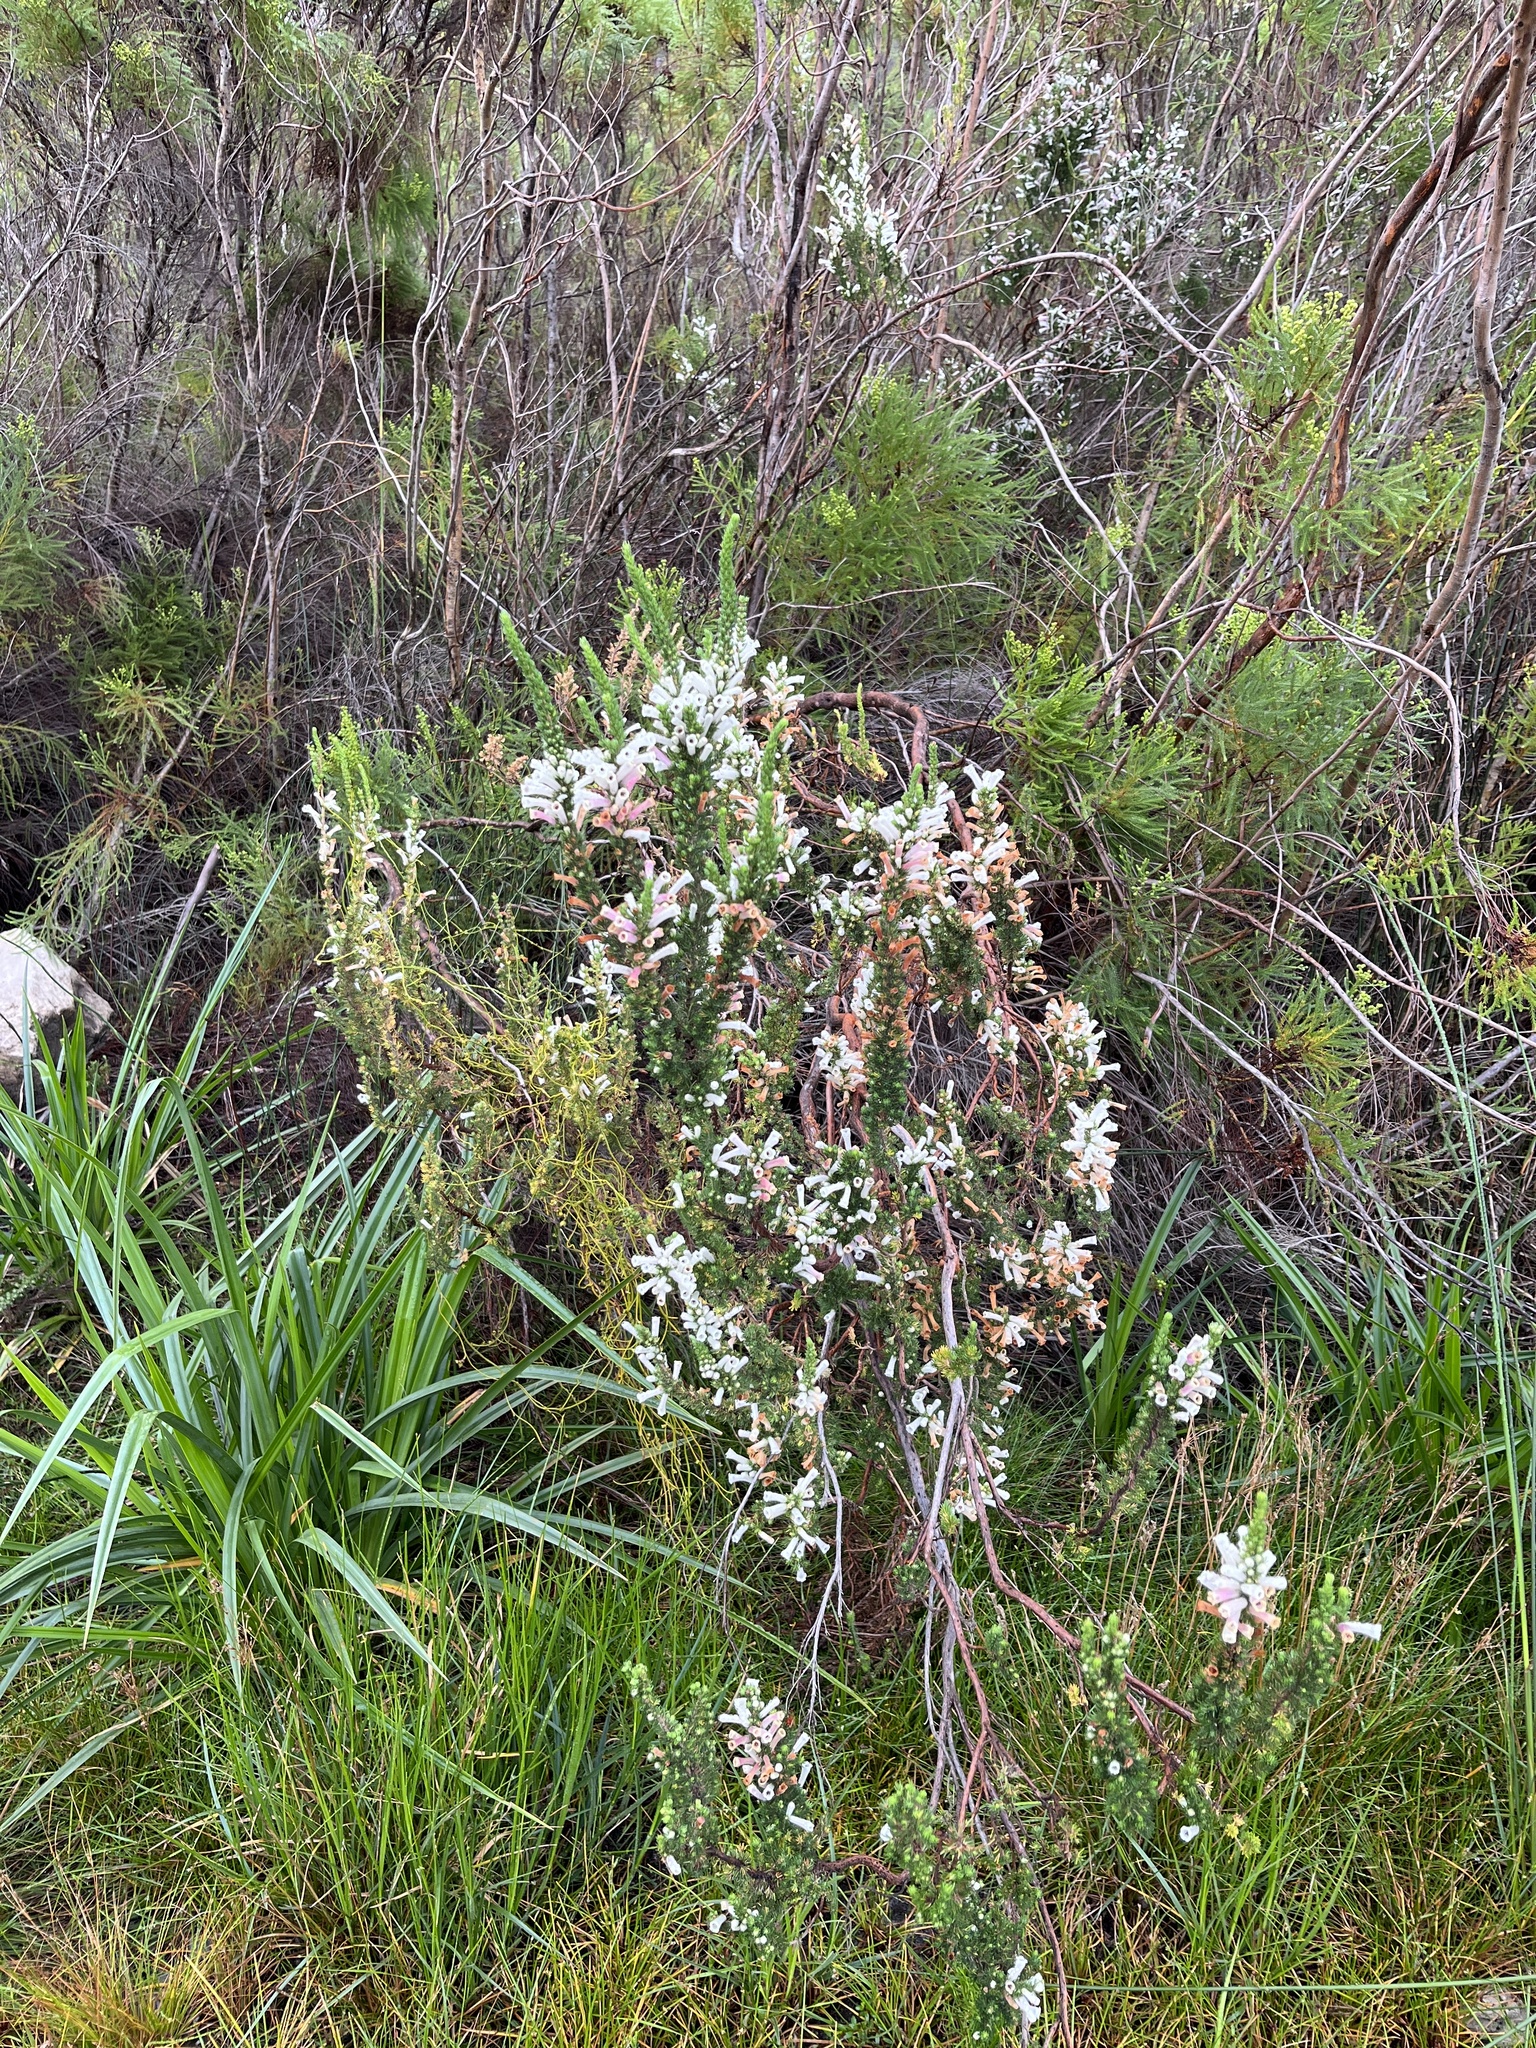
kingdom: Plantae
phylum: Tracheophyta
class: Magnoliopsida
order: Ericales
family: Ericaceae
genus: Erica
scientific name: Erica perspicua
